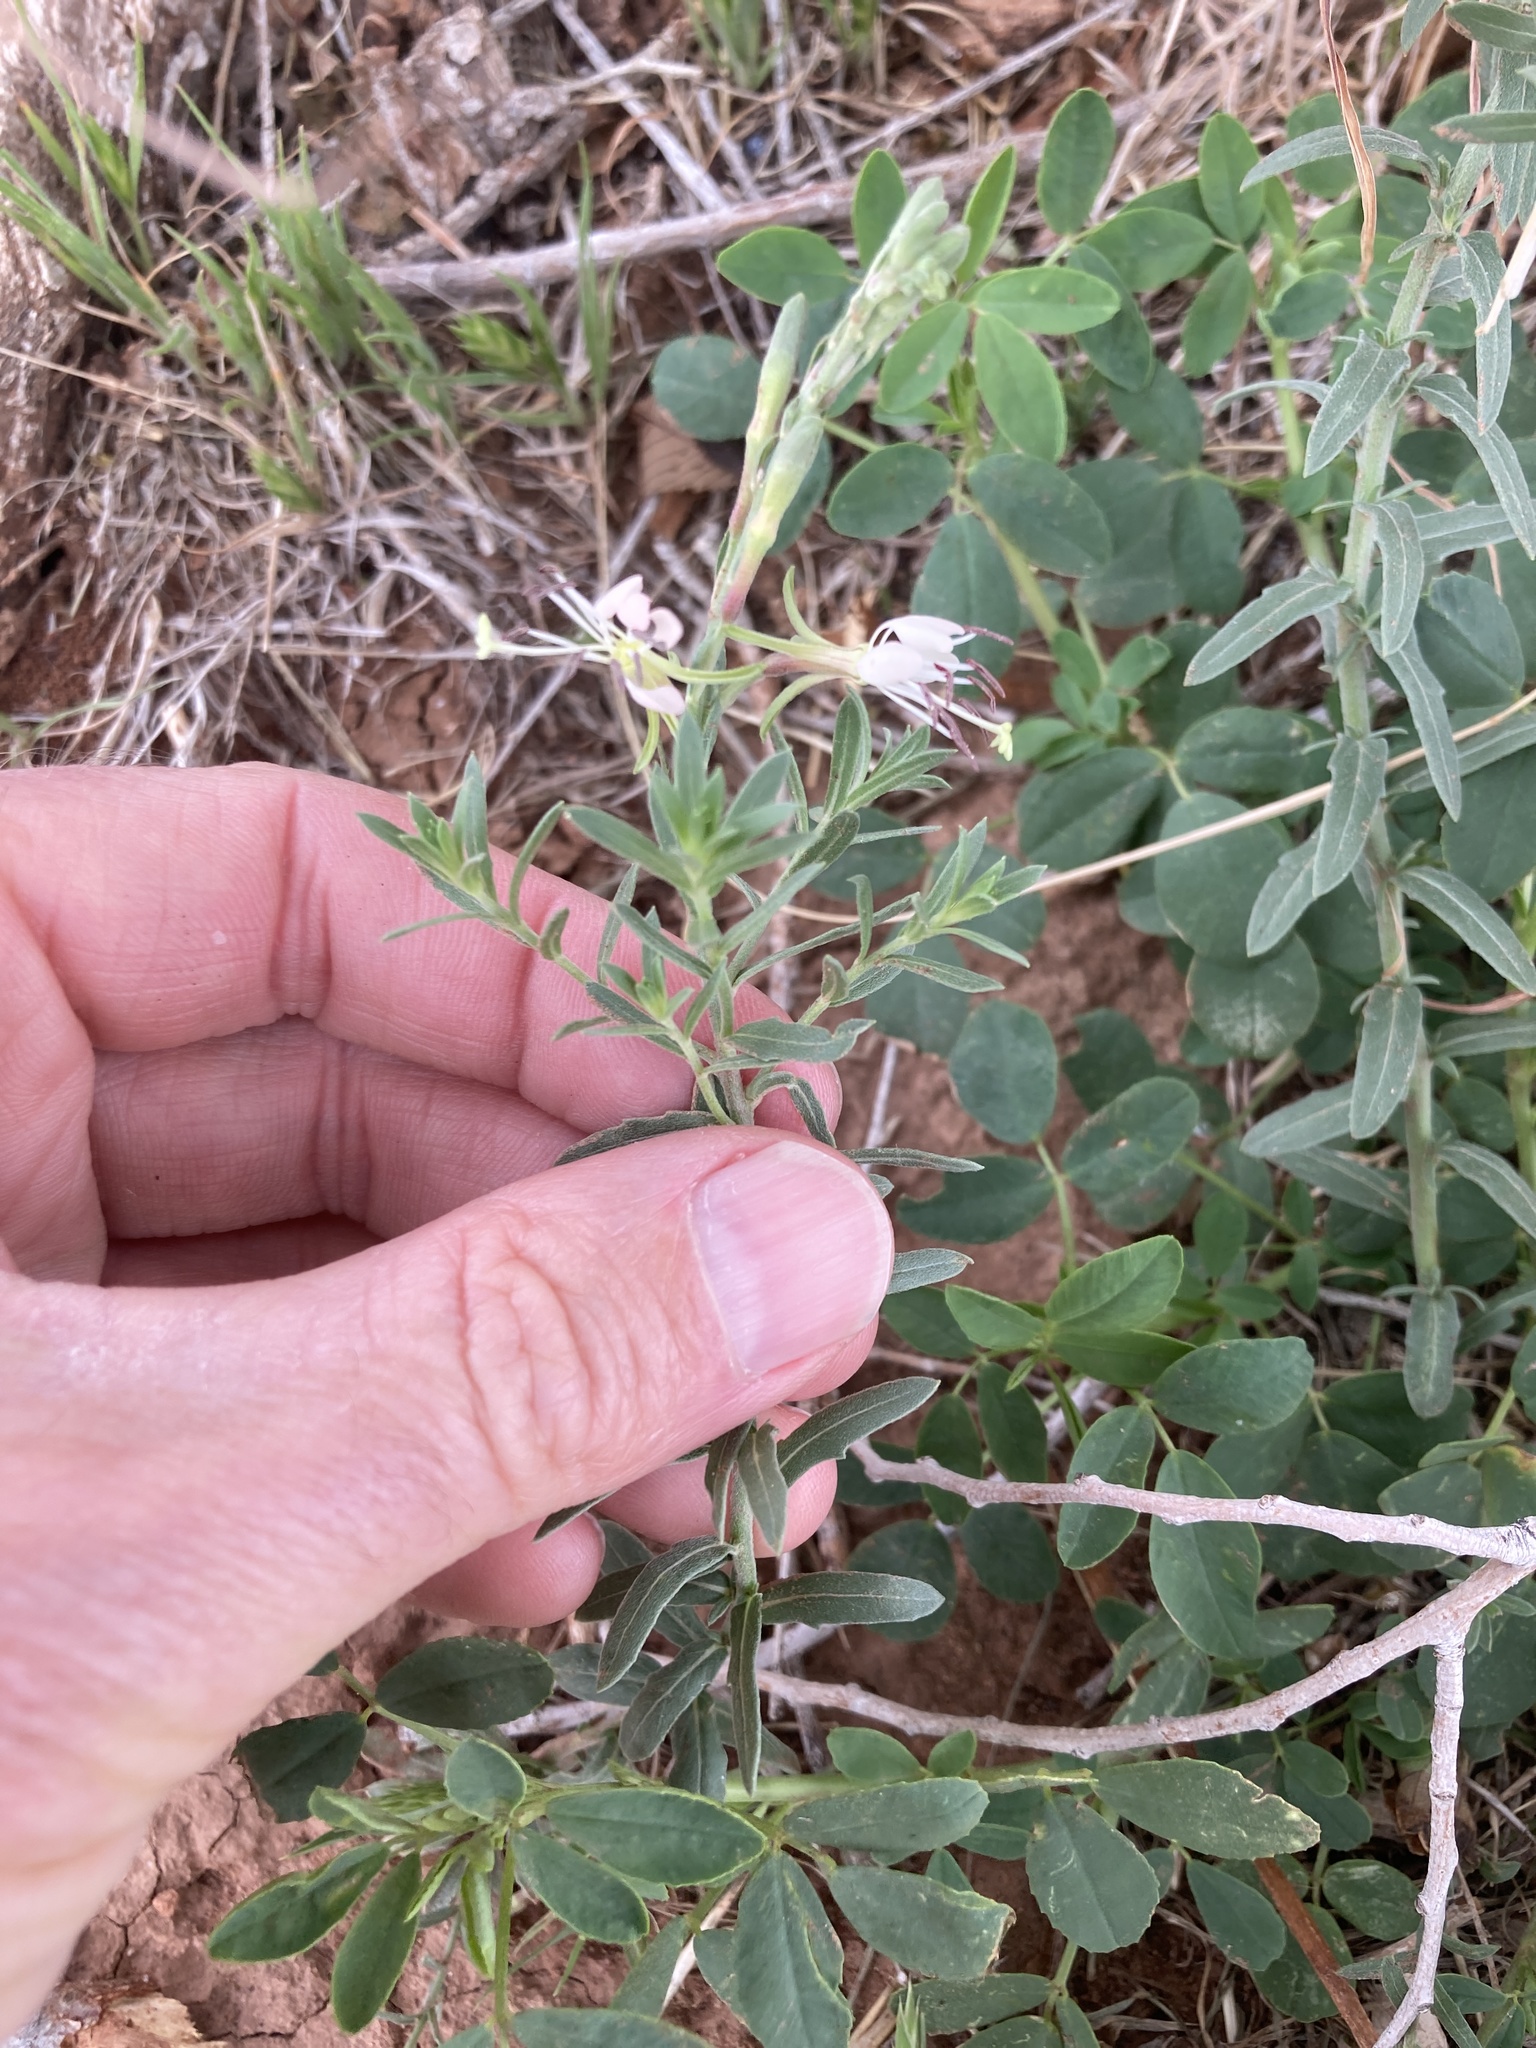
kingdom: Plantae
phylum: Tracheophyta
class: Magnoliopsida
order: Myrtales
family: Onagraceae
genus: Oenothera
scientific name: Oenothera suffrutescens
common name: Scarlet beeblossom
